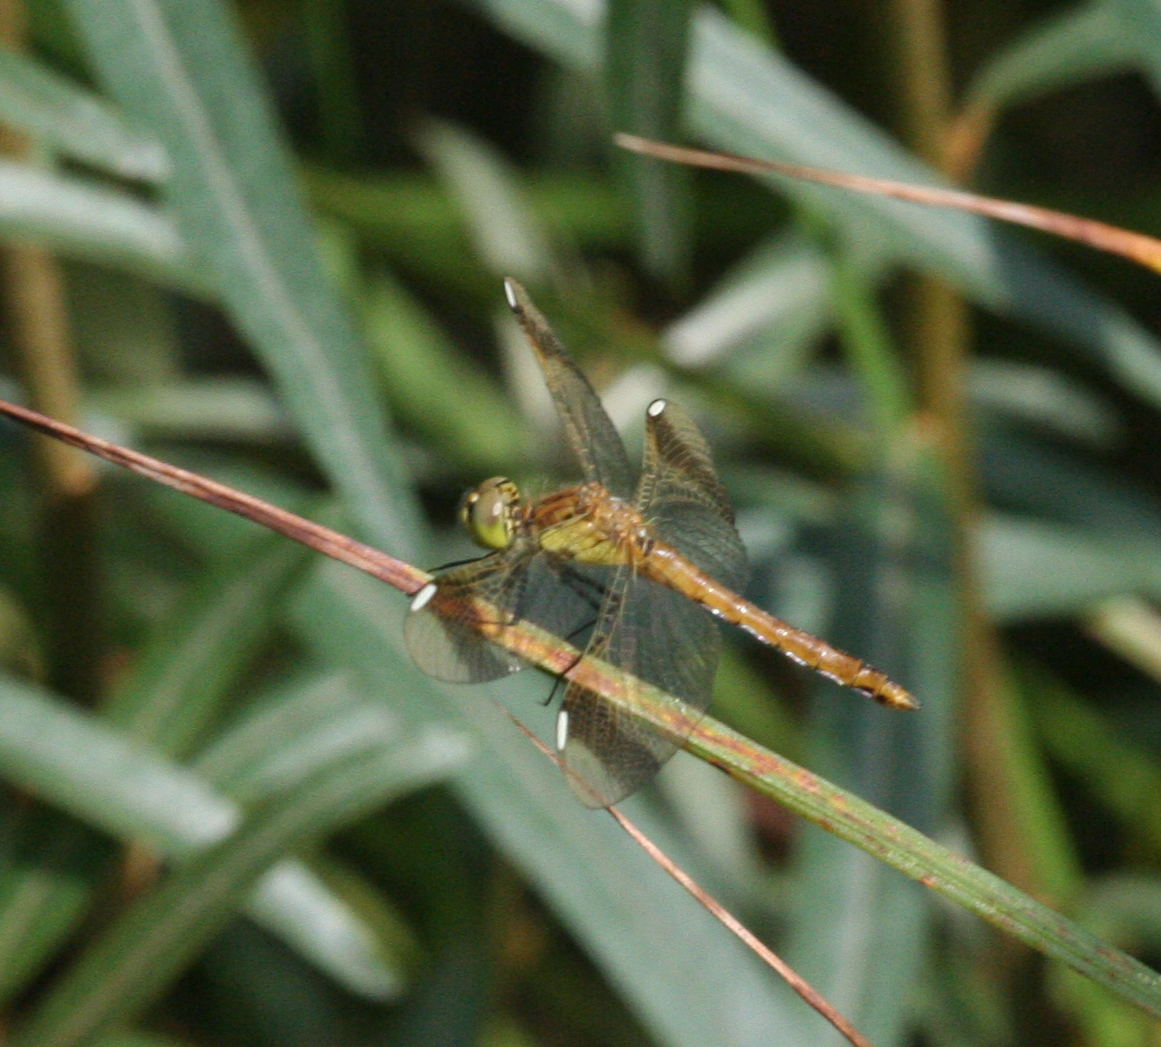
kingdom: Animalia
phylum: Arthropoda
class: Insecta
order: Odonata
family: Libellulidae
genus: Sympetrum
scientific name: Sympetrum pedemontanum
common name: Banded darter
